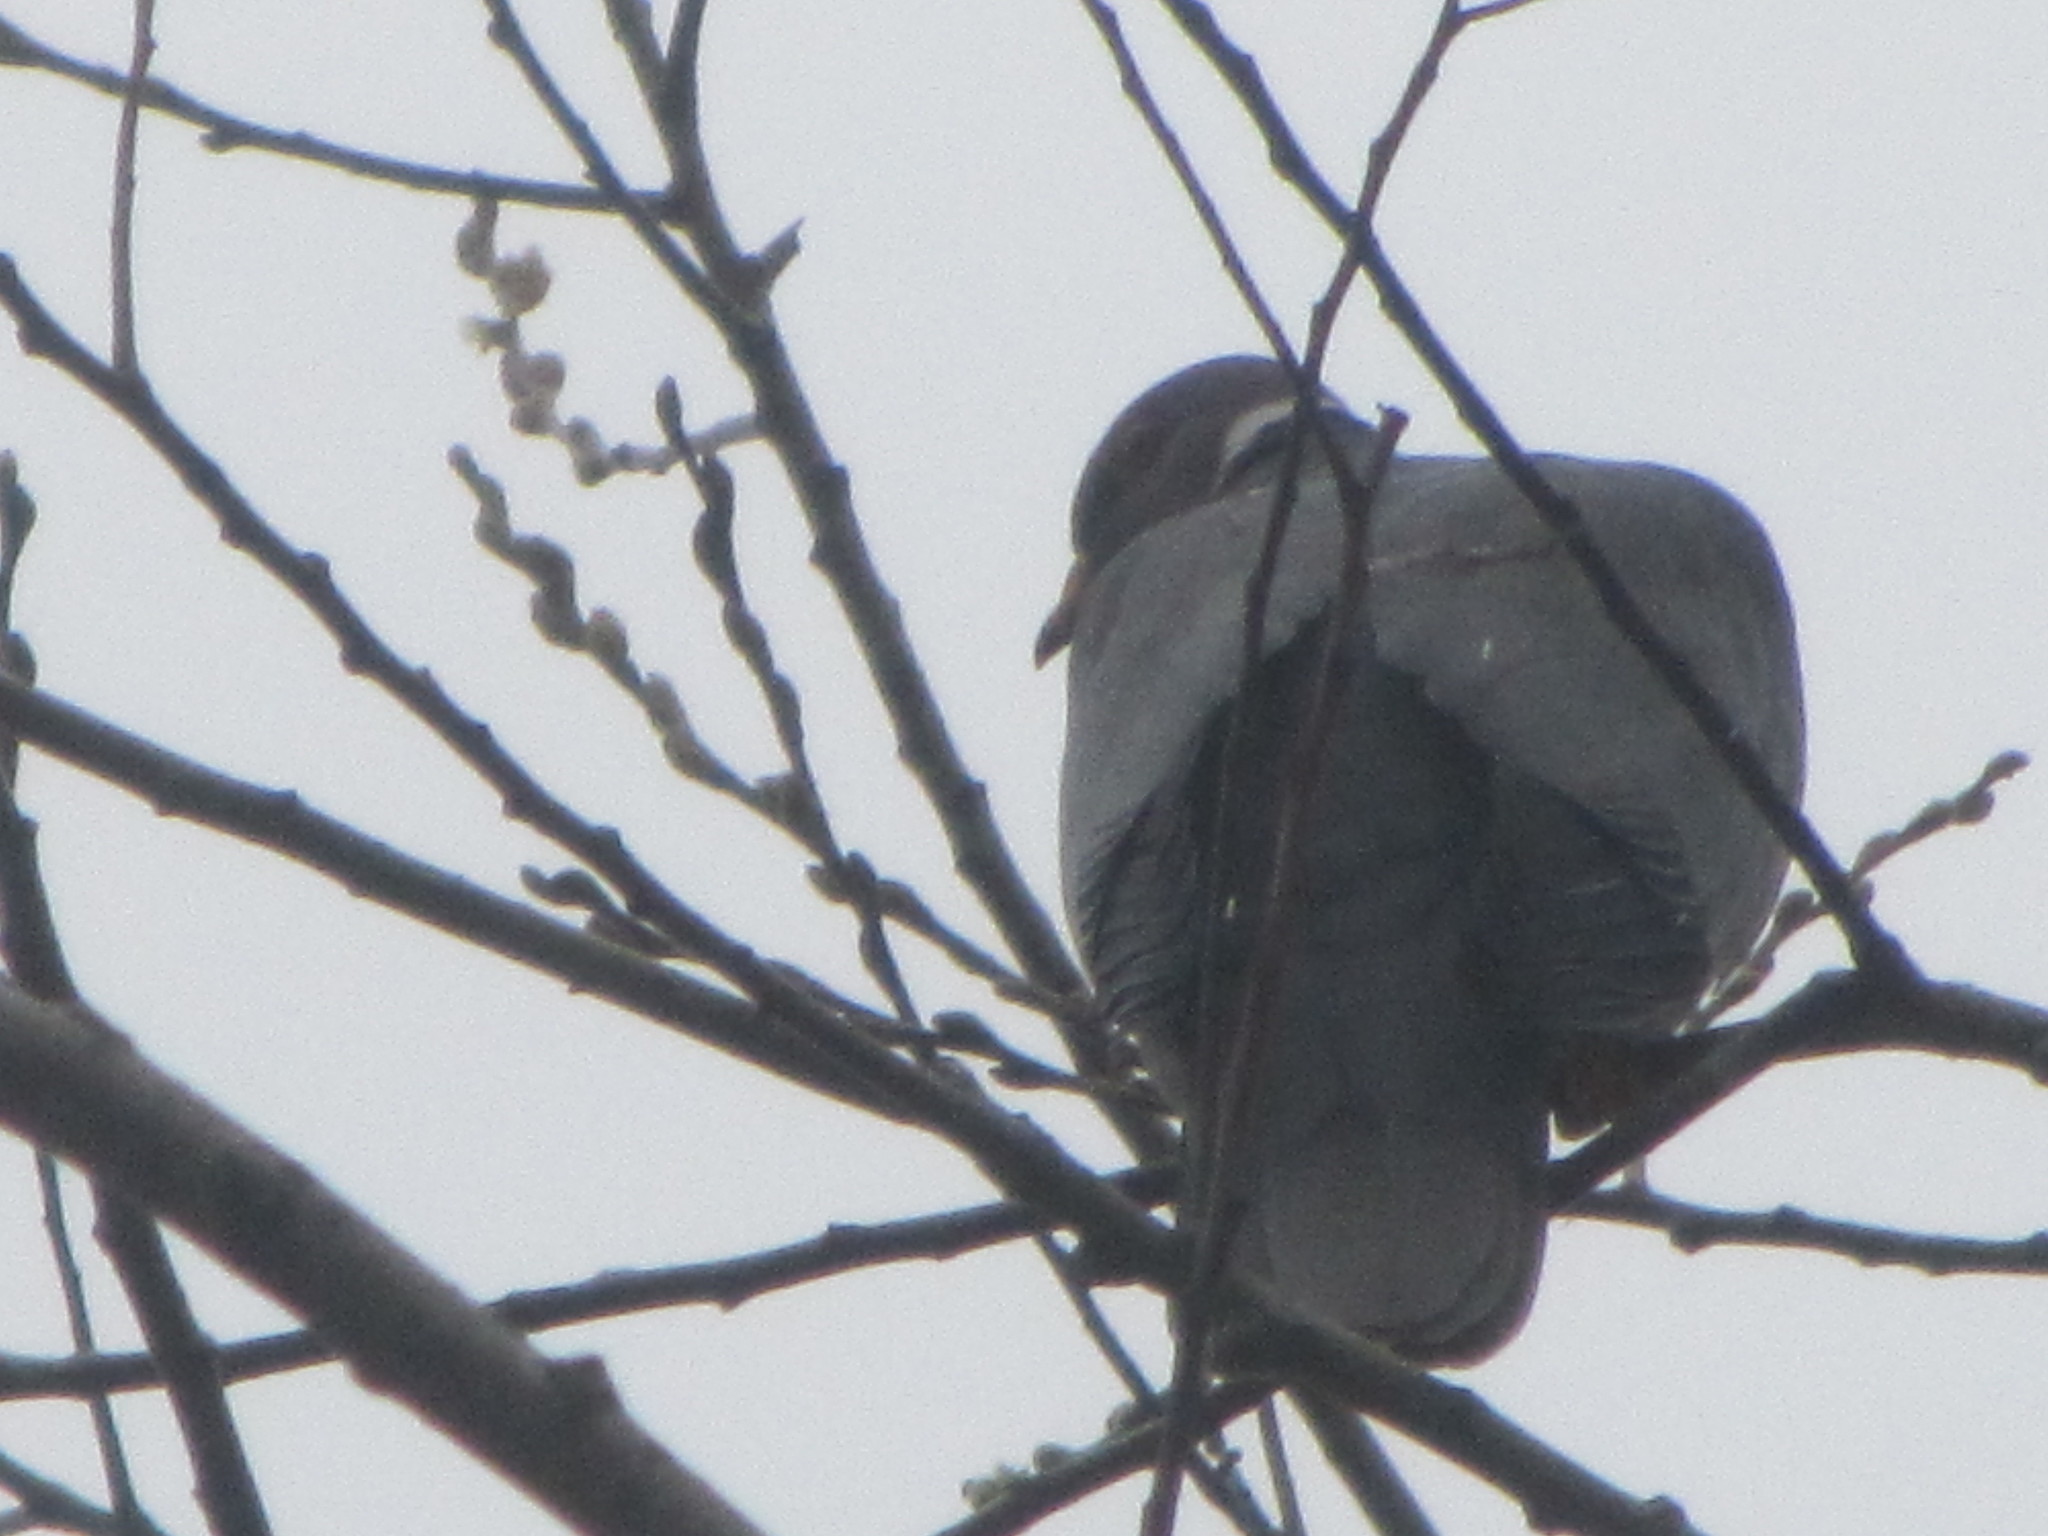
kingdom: Animalia
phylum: Chordata
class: Aves
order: Columbiformes
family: Columbidae
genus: Patagioenas
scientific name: Patagioenas fasciata
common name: Band-tailed pigeon
